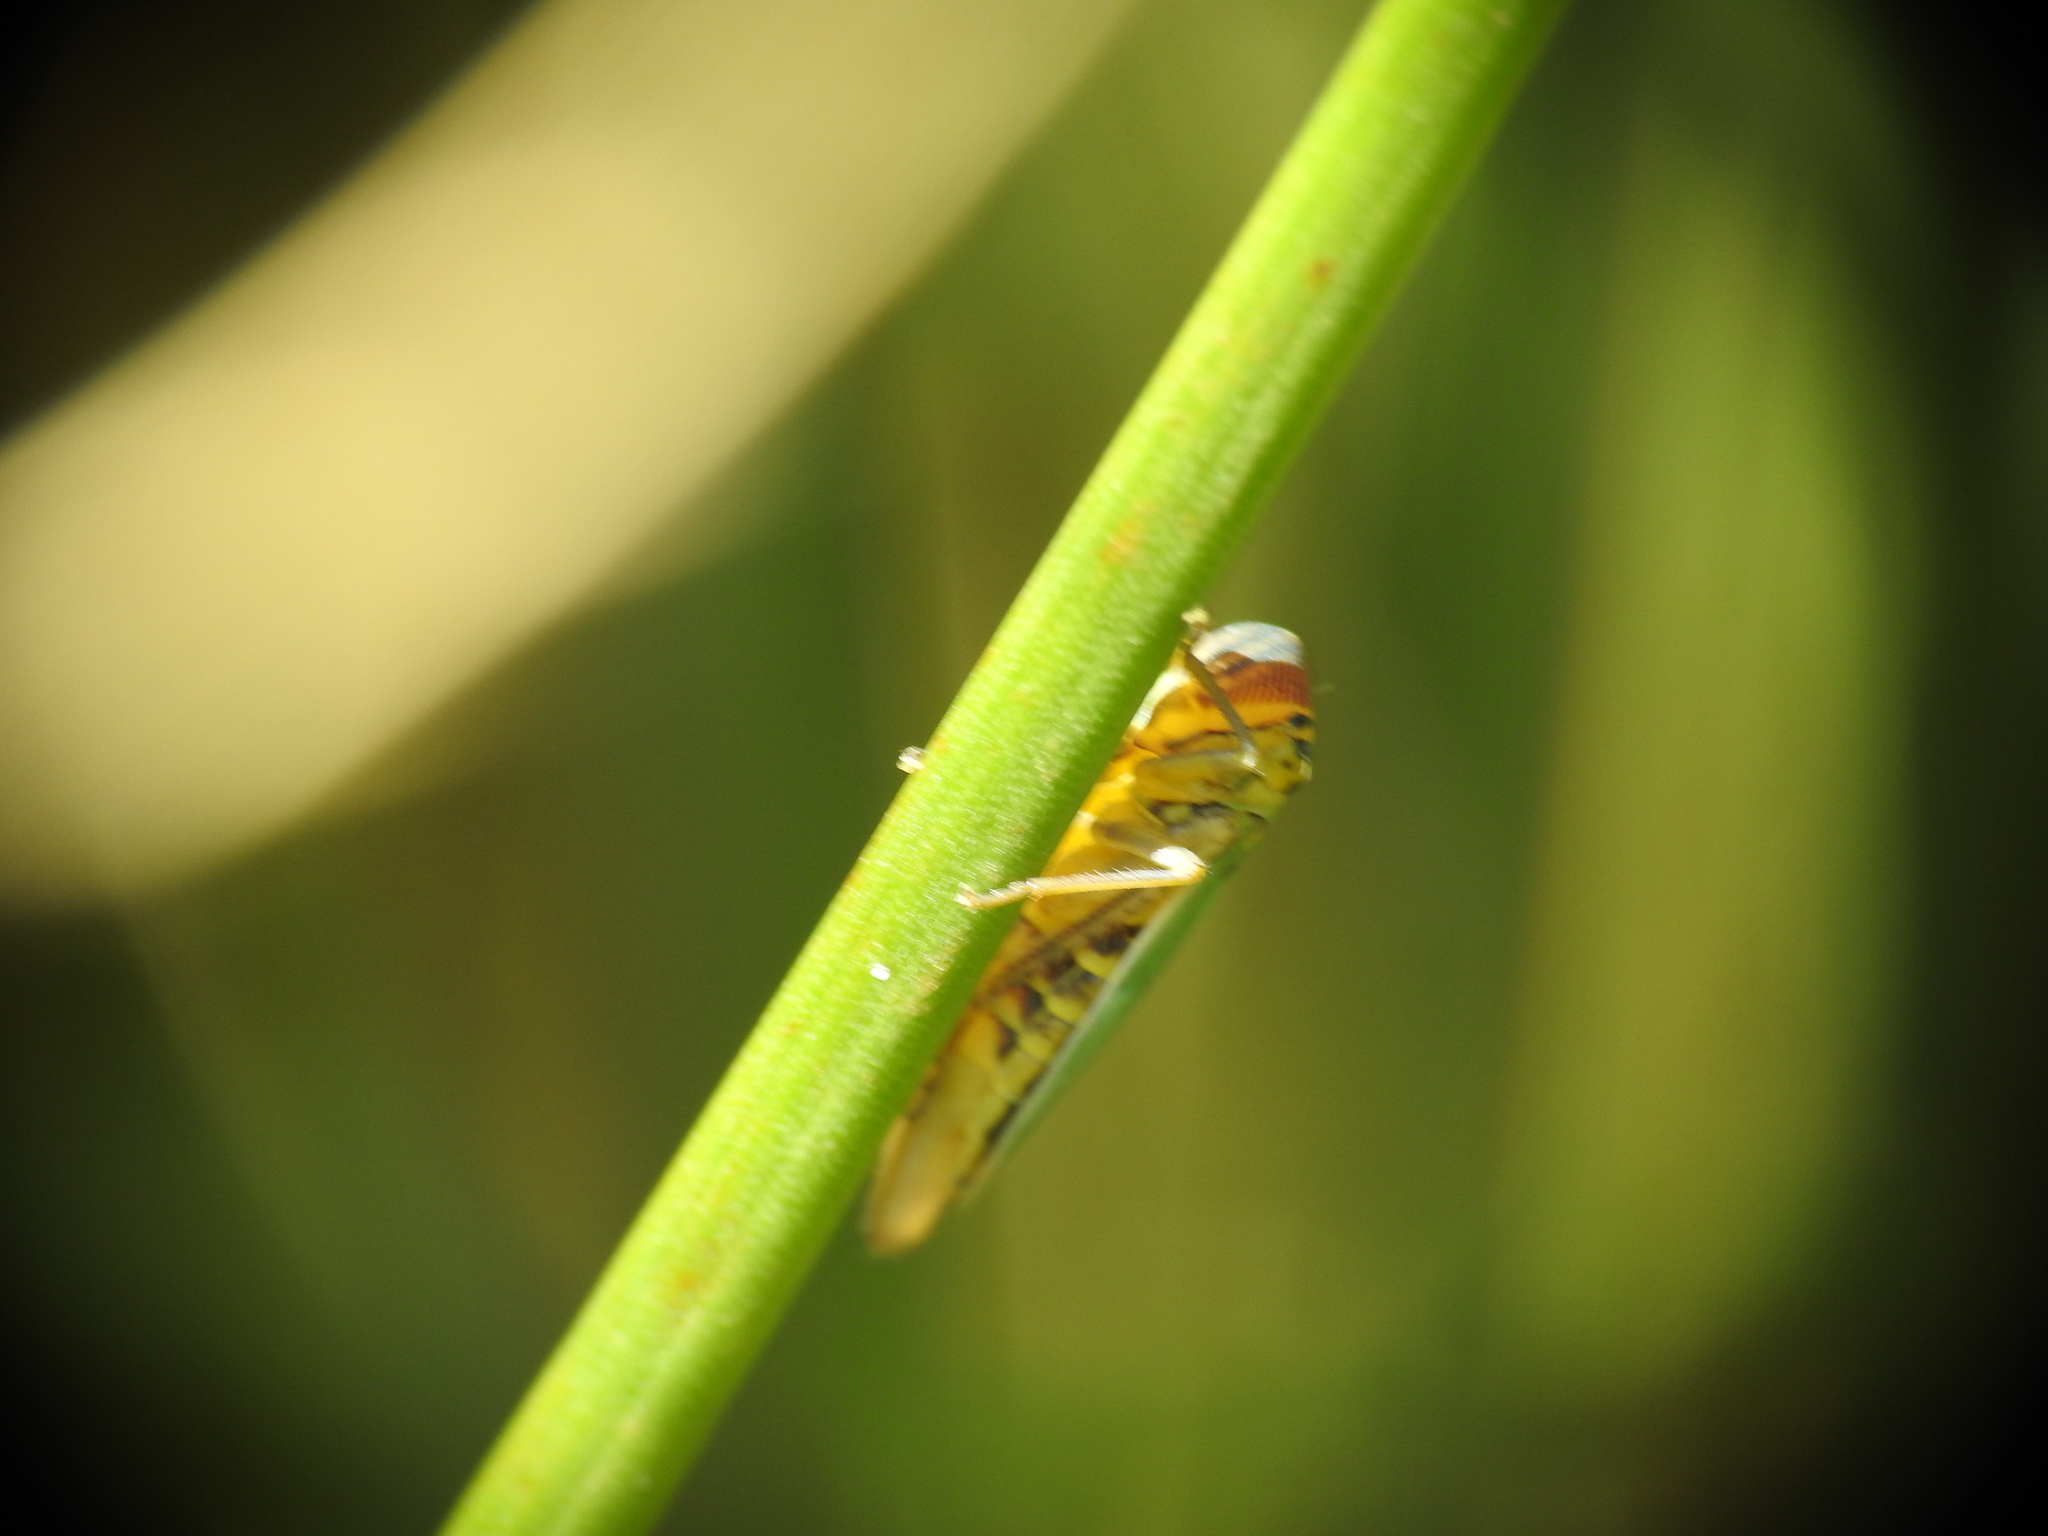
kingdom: Animalia
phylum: Arthropoda
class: Insecta
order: Hemiptera
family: Cicadellidae
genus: Cicadella
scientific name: Cicadella viridis
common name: Leafhopper
